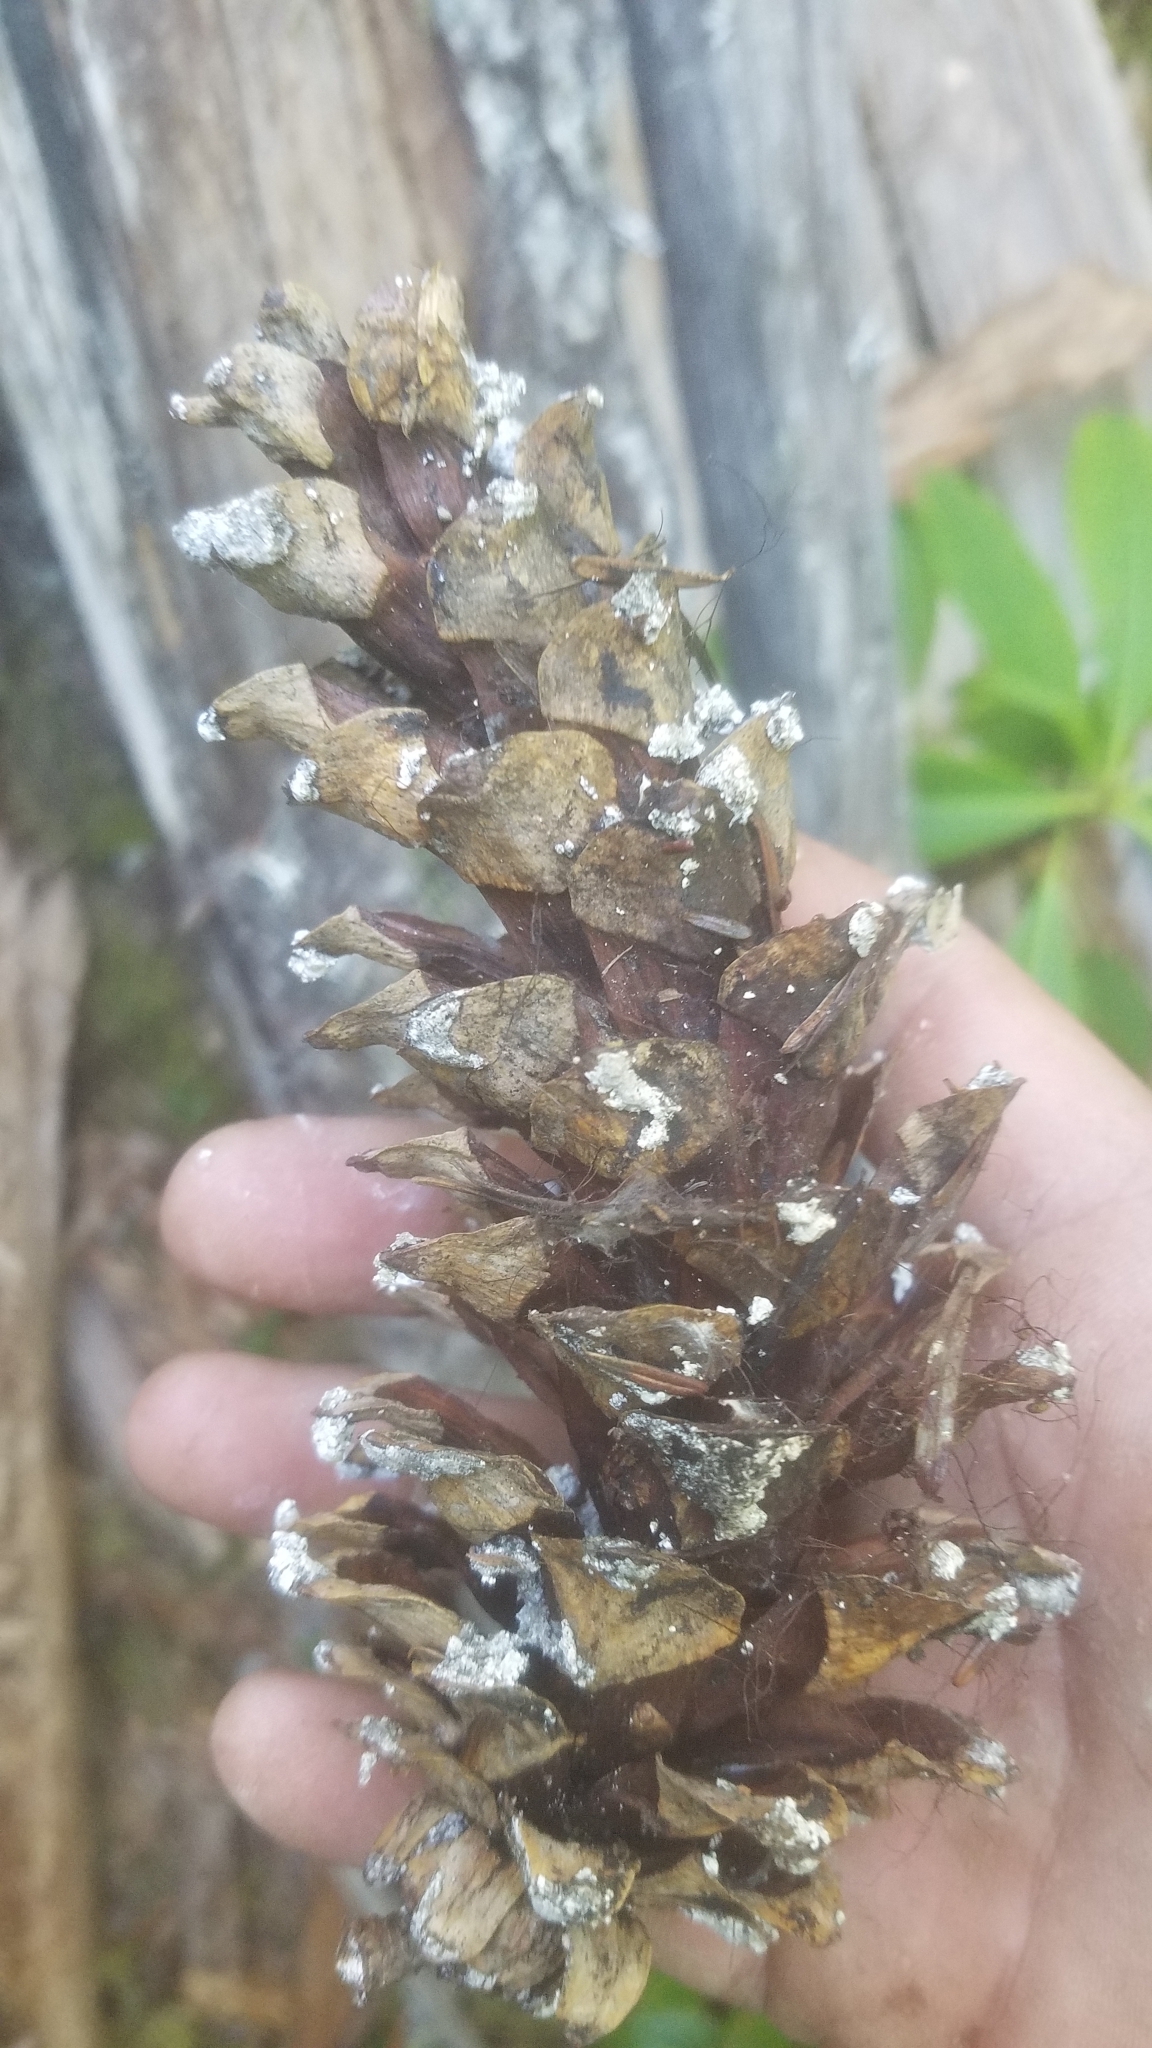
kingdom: Plantae
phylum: Tracheophyta
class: Pinopsida
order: Pinales
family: Pinaceae
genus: Pinus
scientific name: Pinus monticola
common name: Western white pine
